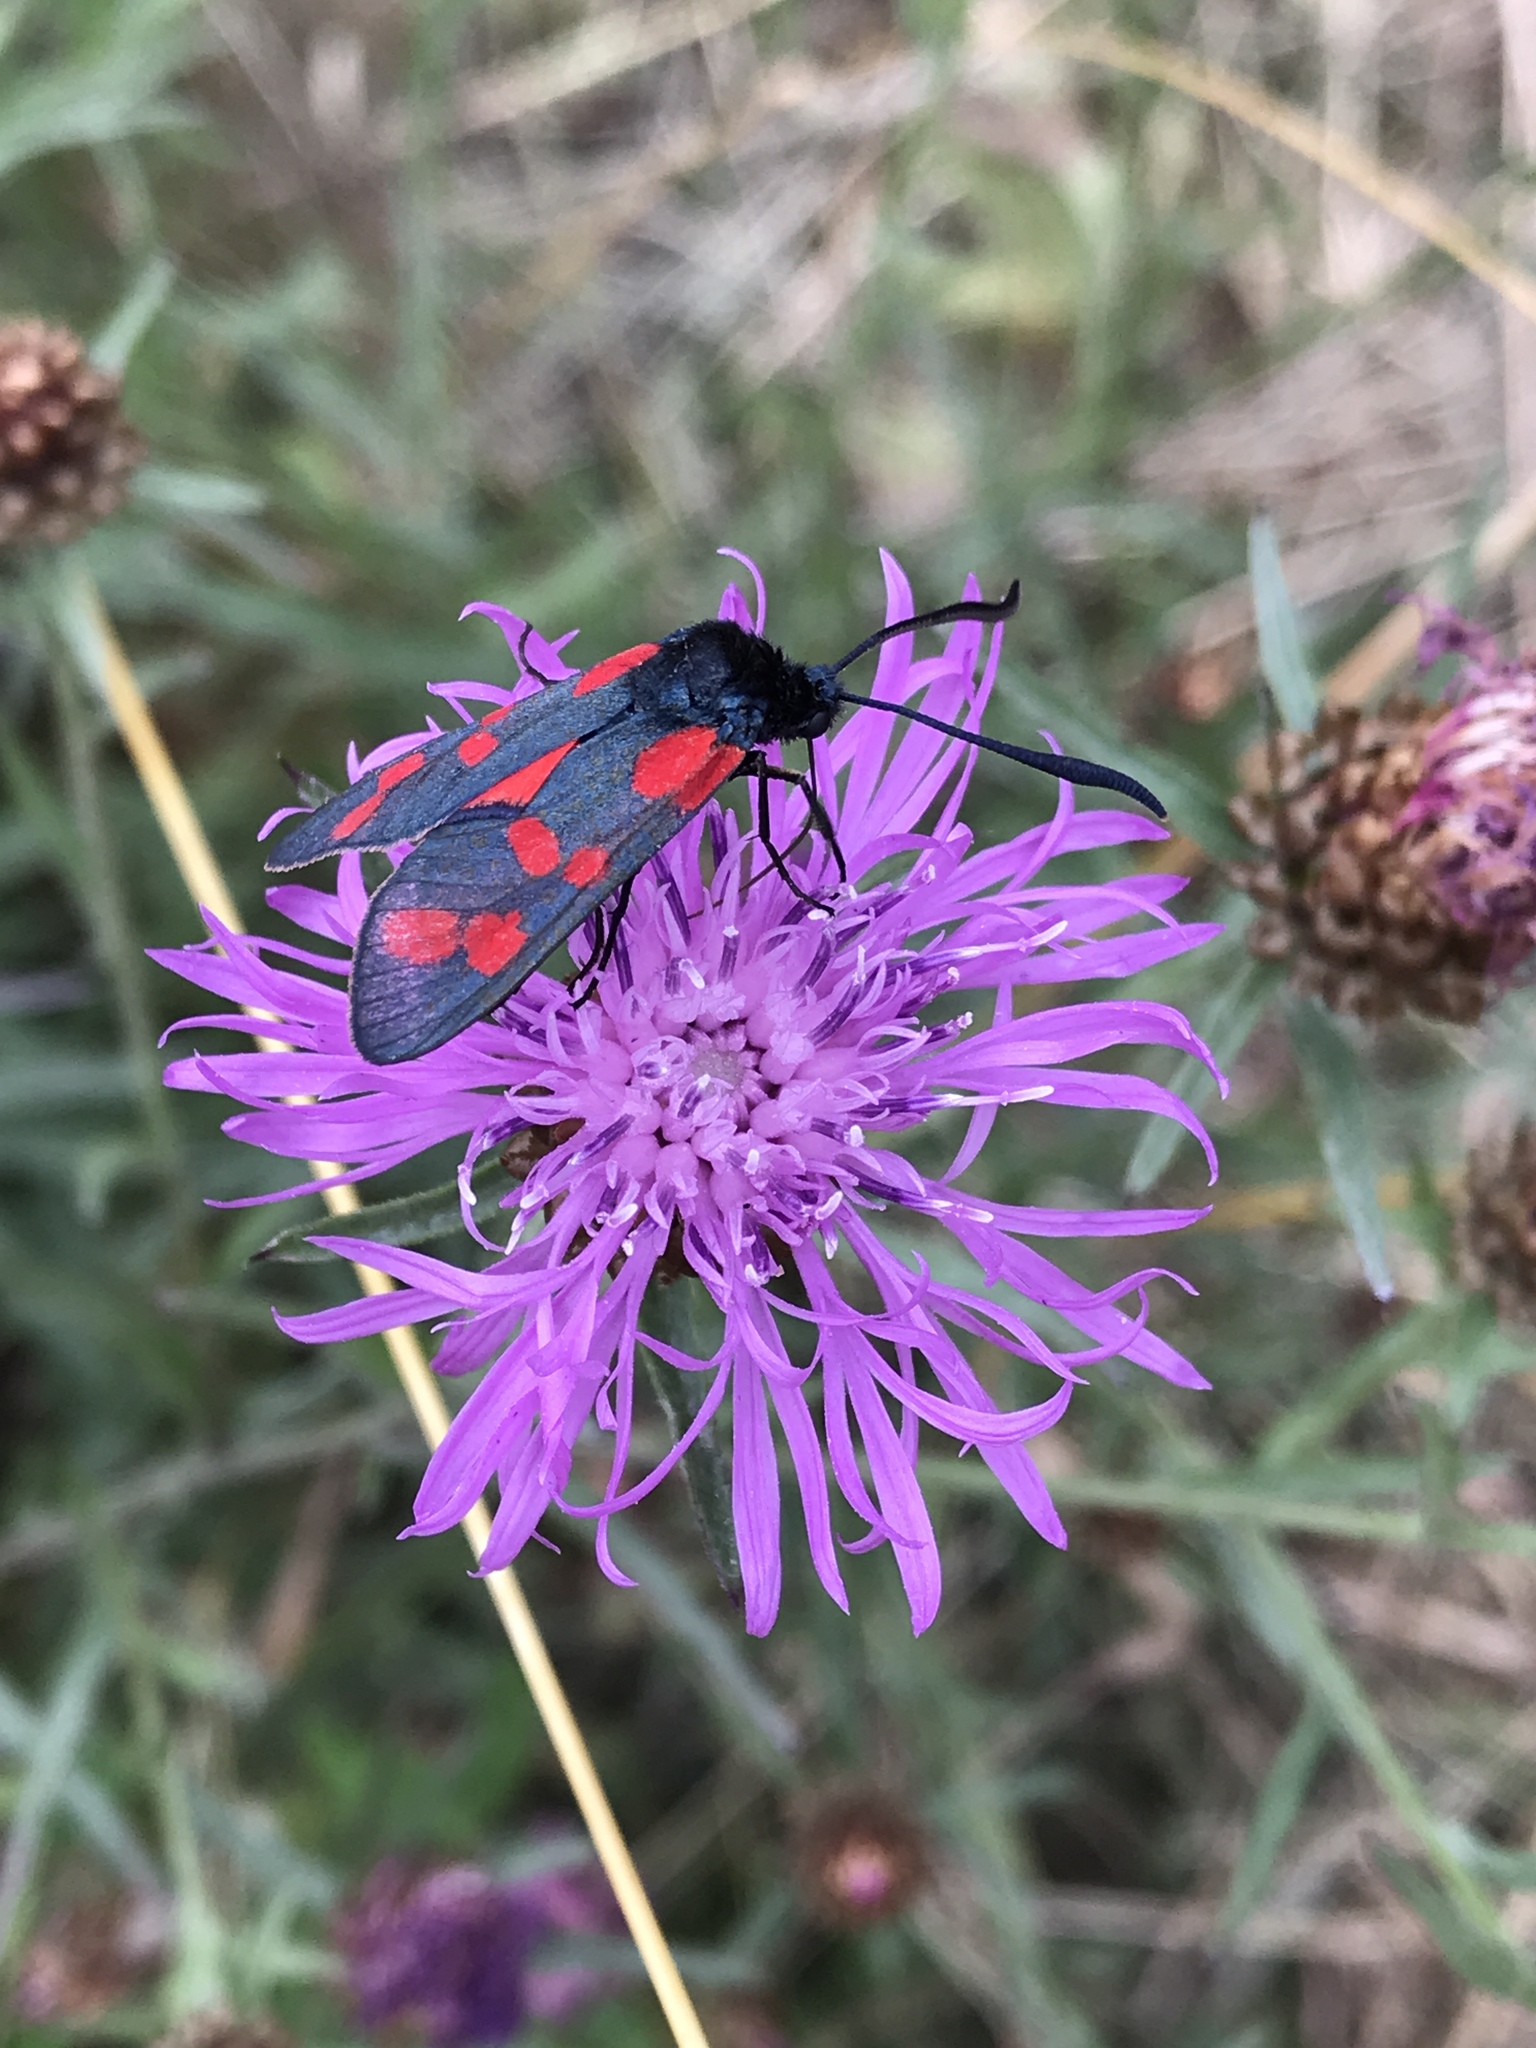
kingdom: Animalia
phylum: Arthropoda
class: Insecta
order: Lepidoptera
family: Zygaenidae
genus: Zygaena
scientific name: Zygaena filipendulae
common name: Six-spot burnet
